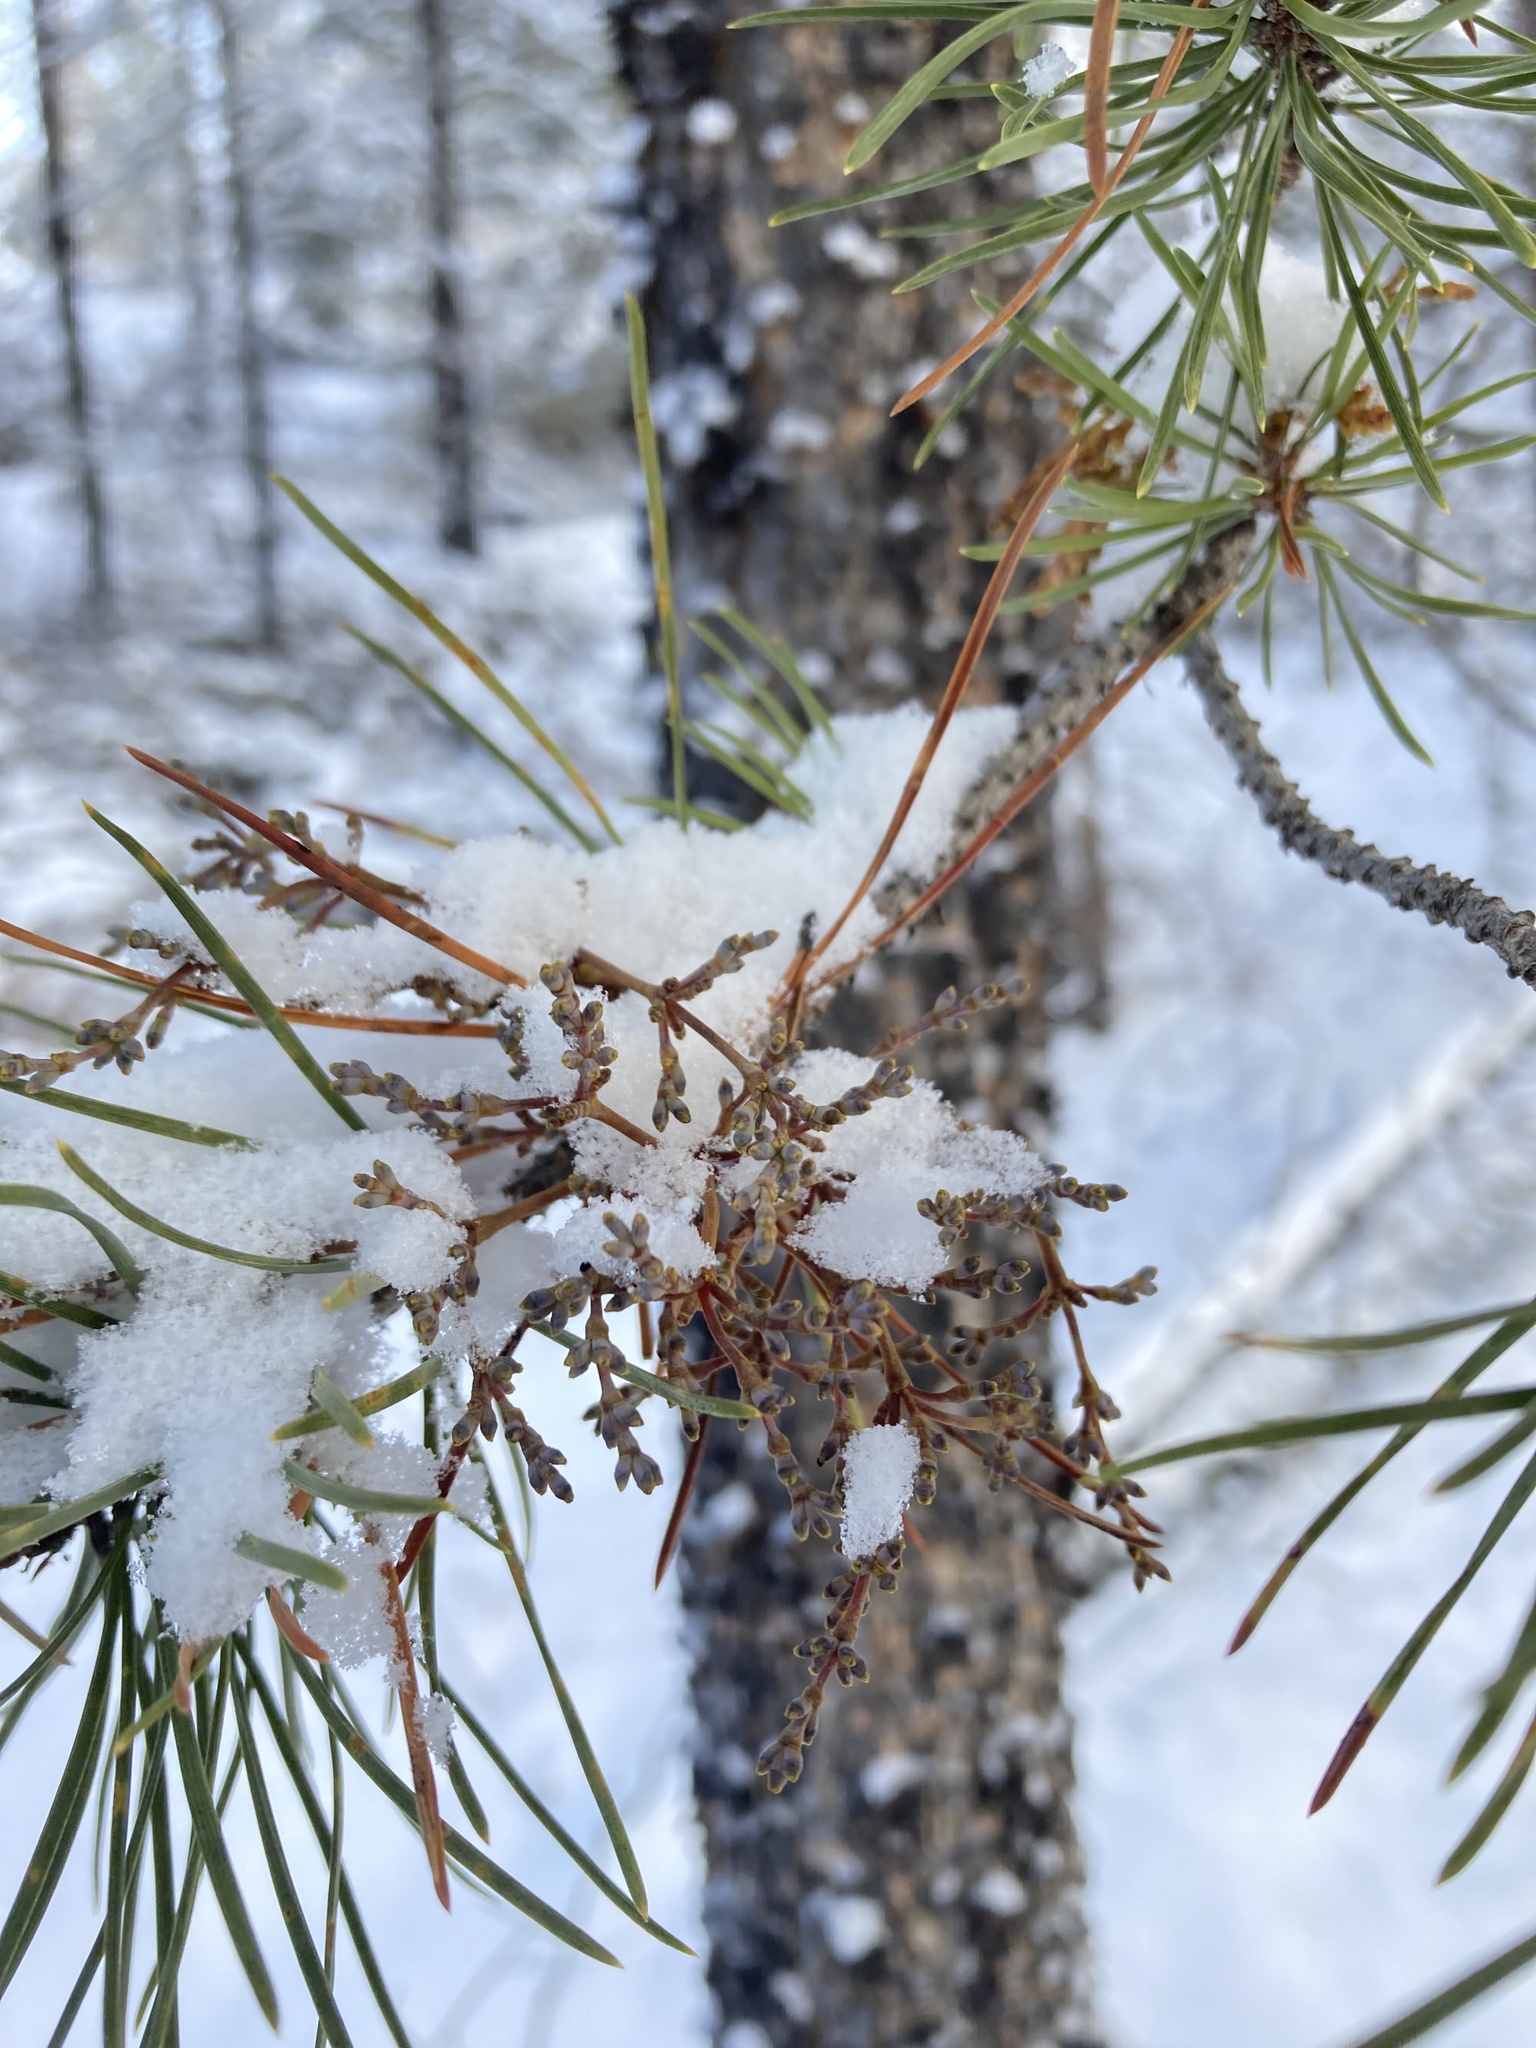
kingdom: Plantae
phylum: Tracheophyta
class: Magnoliopsida
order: Santalales
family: Viscaceae
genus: Arceuthobium
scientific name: Arceuthobium americanum
